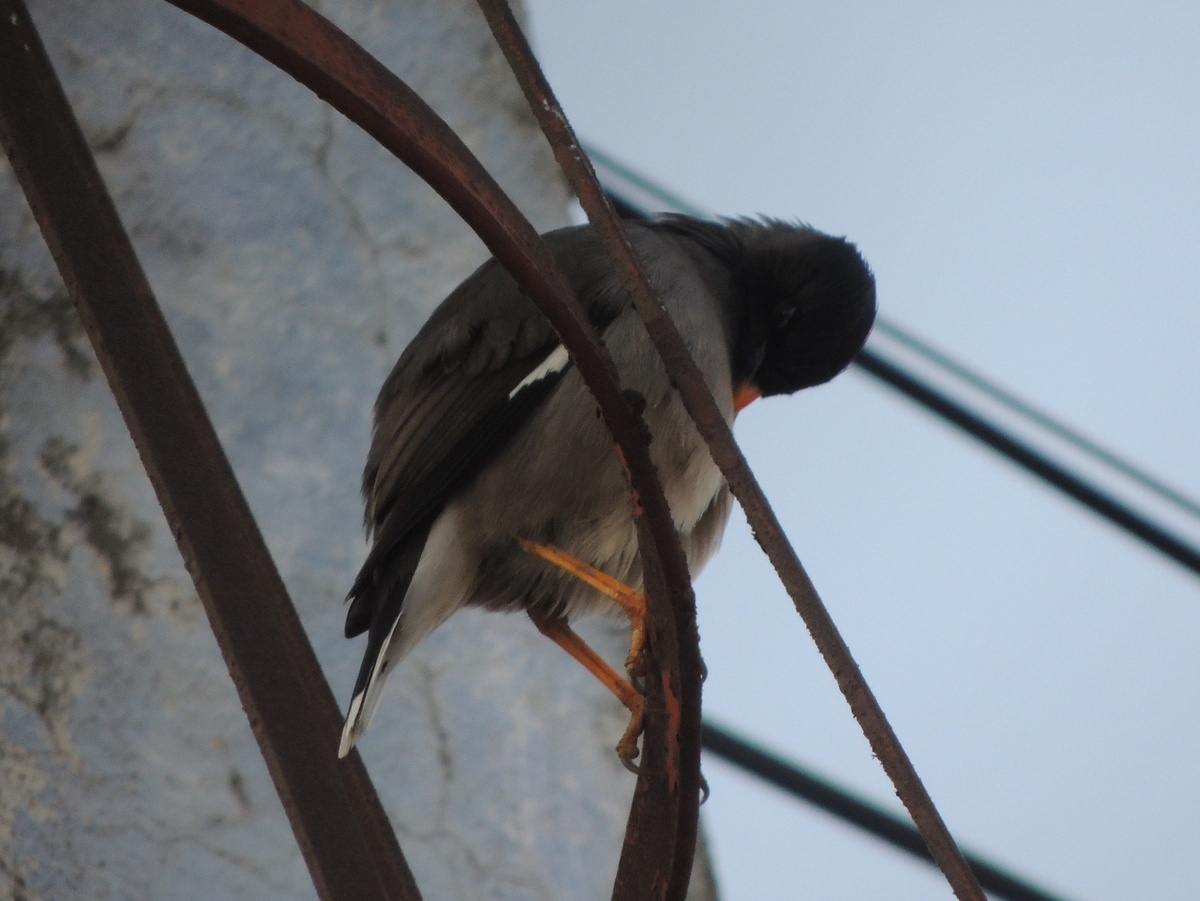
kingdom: Animalia
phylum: Chordata
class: Aves
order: Passeriformes
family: Sturnidae
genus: Acridotheres
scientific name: Acridotheres fuscus
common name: Jungle myna
